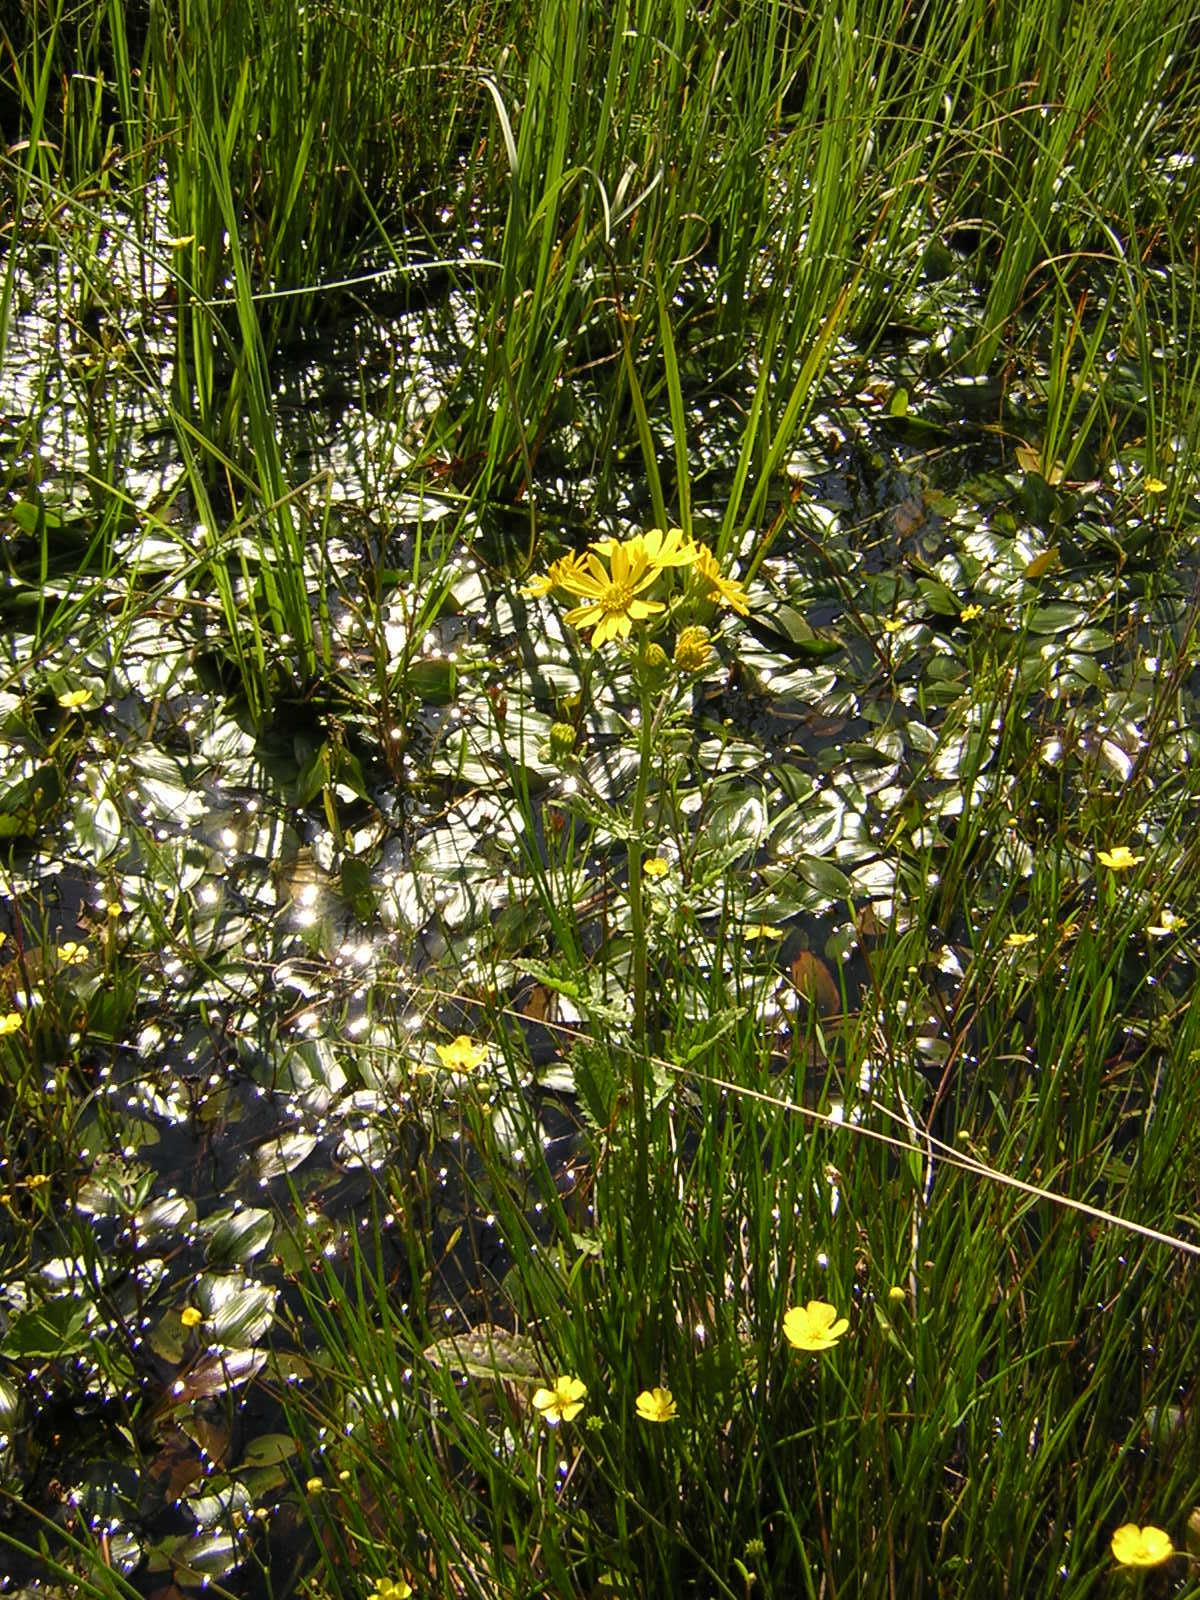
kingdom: Plantae
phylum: Tracheophyta
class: Magnoliopsida
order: Asterales
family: Asteraceae
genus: Jacobaea
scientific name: Jacobaea aquatica
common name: Water ragwort
